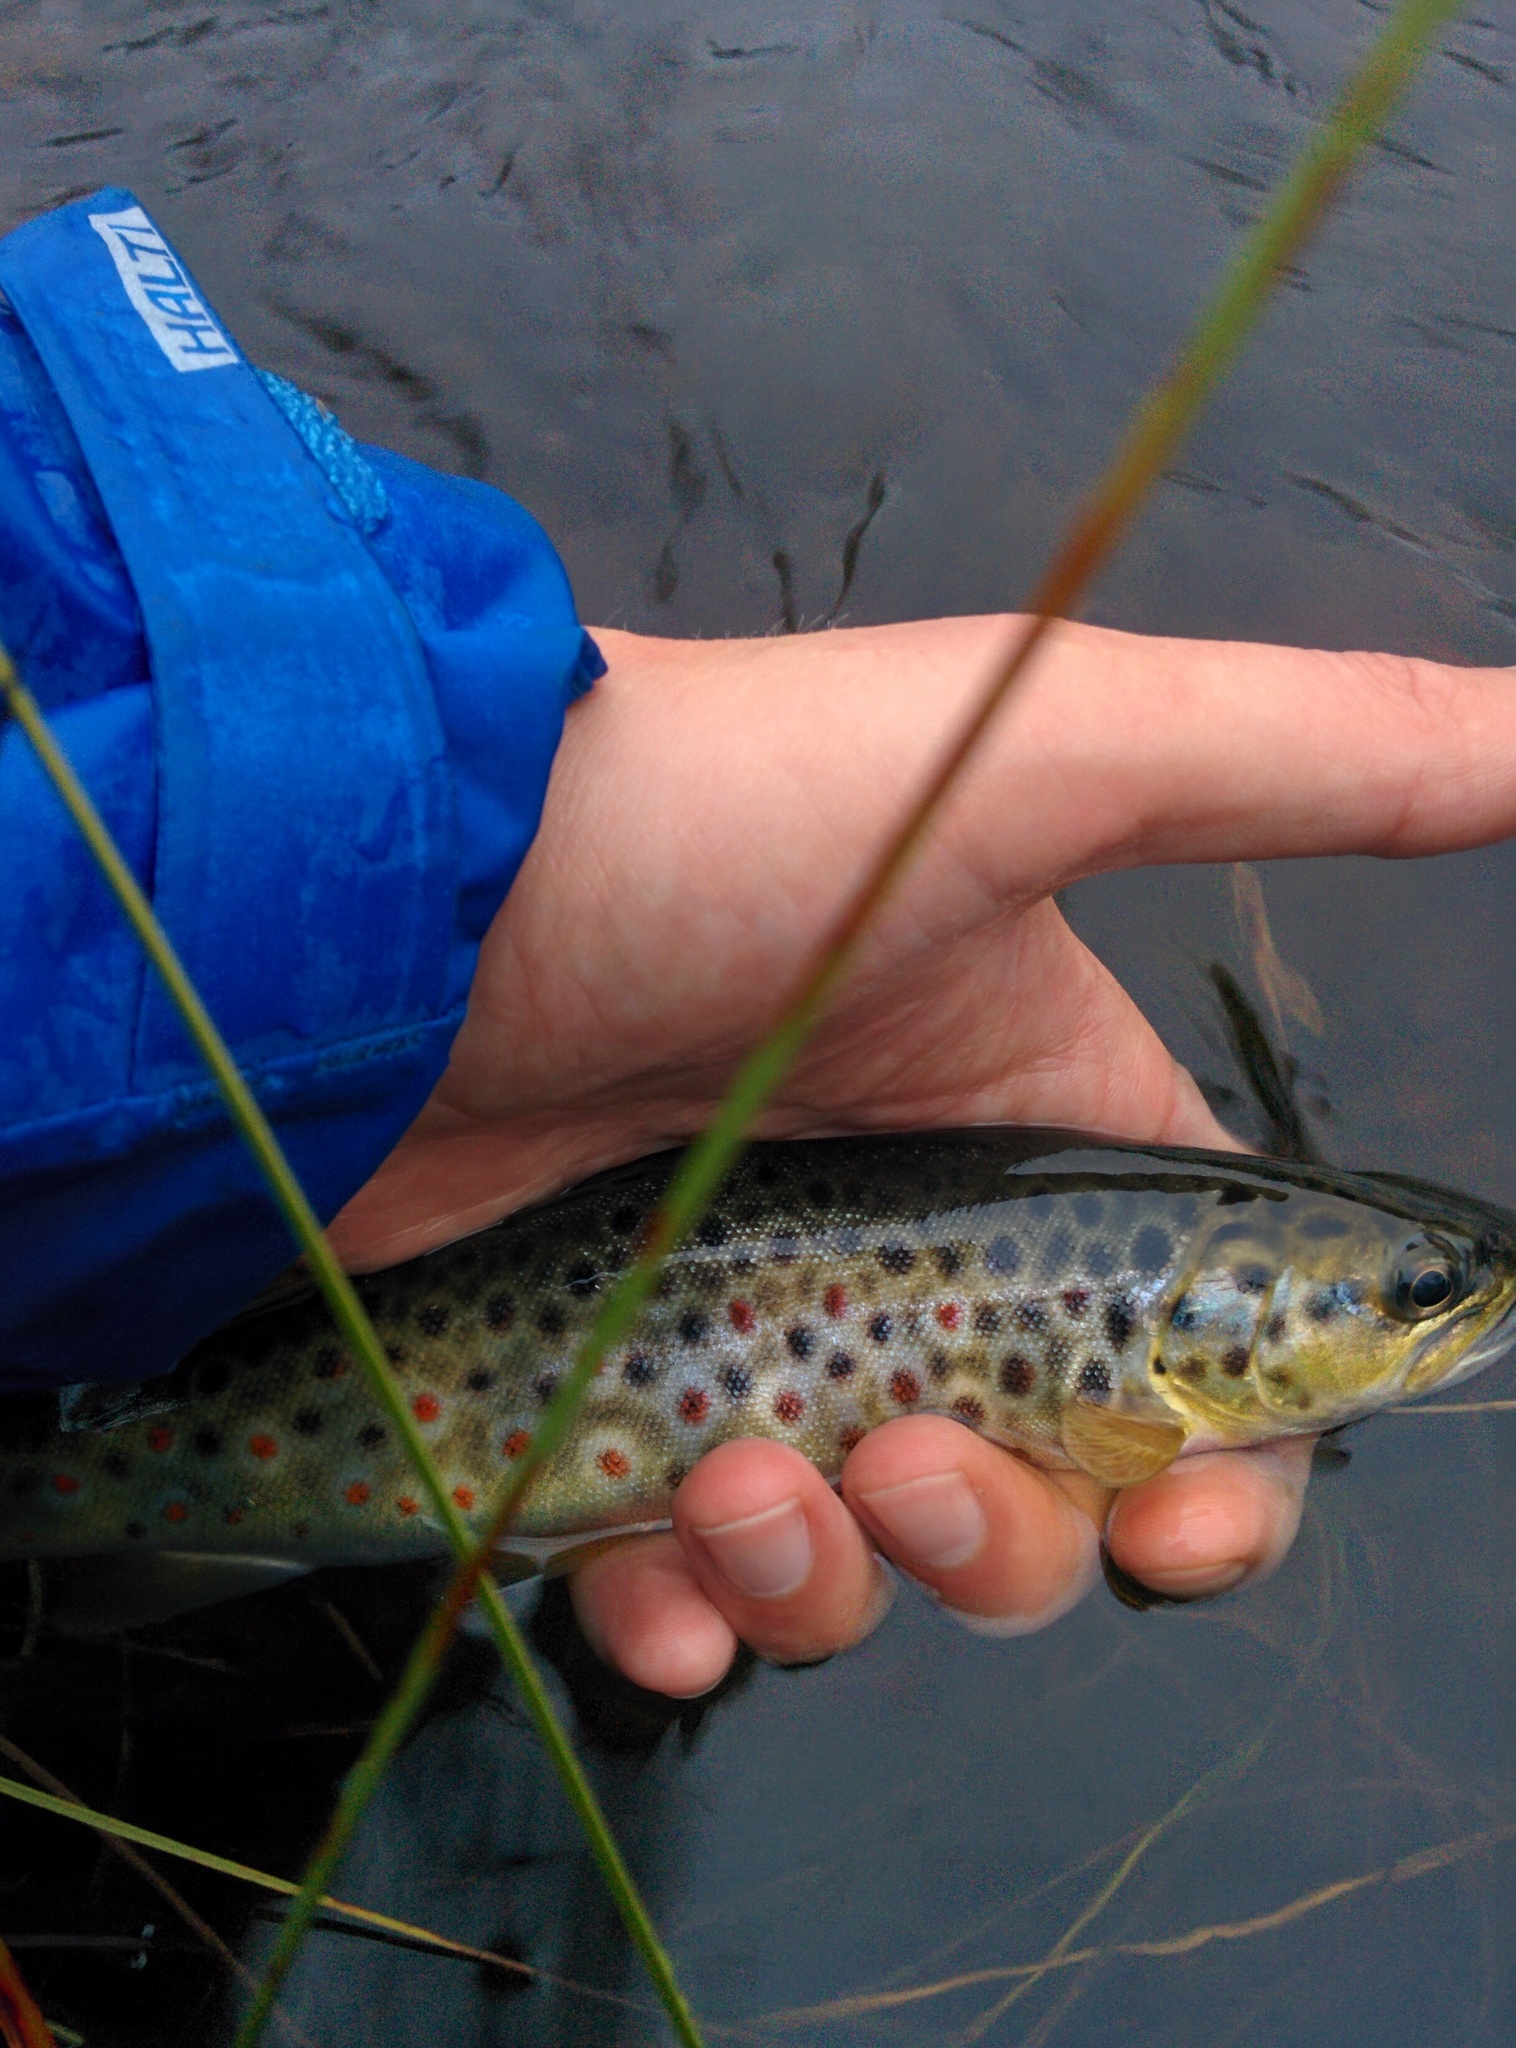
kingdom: Animalia
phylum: Chordata
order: Salmoniformes
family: Salmonidae
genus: Salmo
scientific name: Salmo trutta
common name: Brown trout
